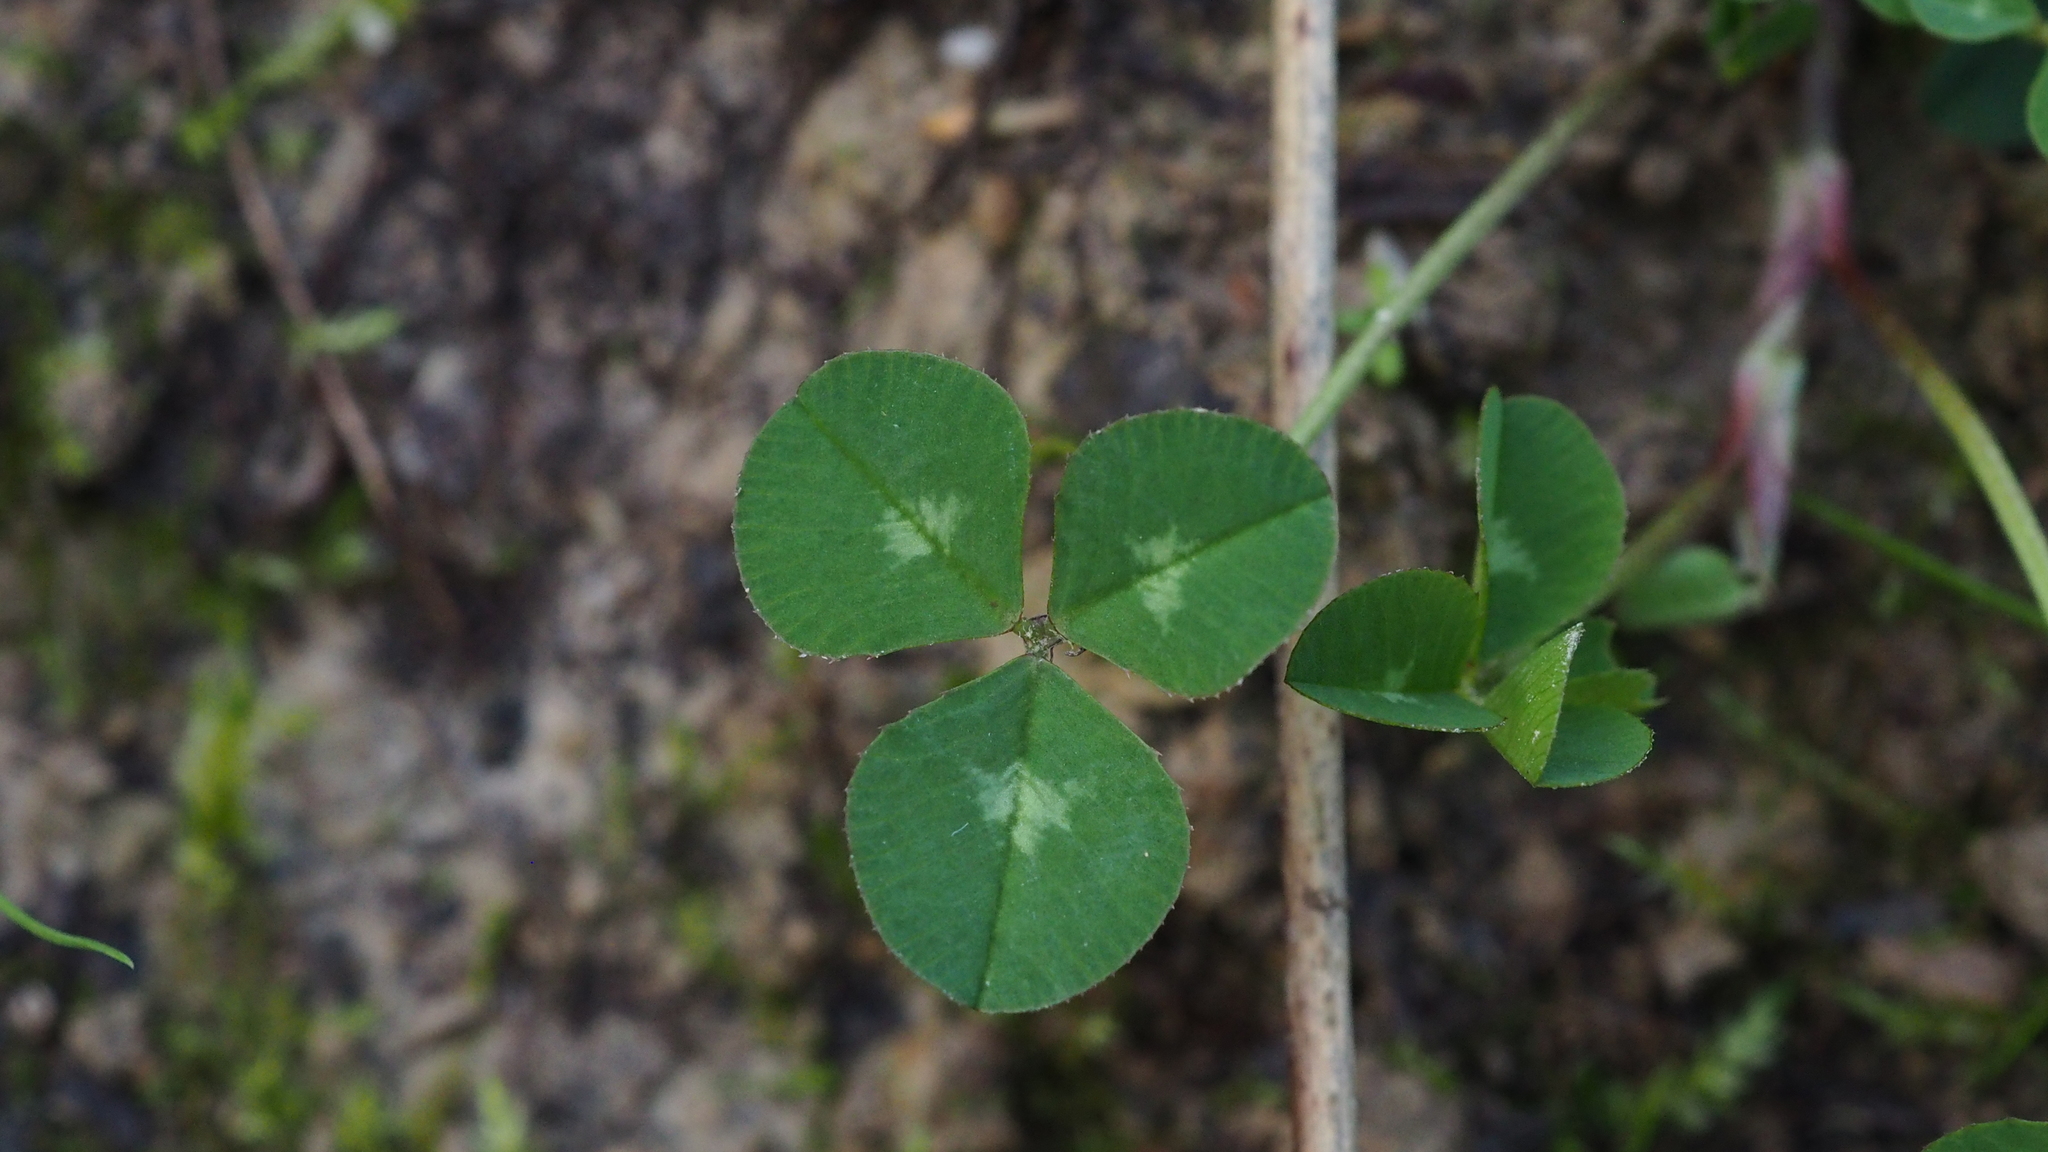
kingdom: Plantae
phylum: Tracheophyta
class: Magnoliopsida
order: Fabales
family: Fabaceae
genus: Trifolium
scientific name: Trifolium repens
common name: White clover
